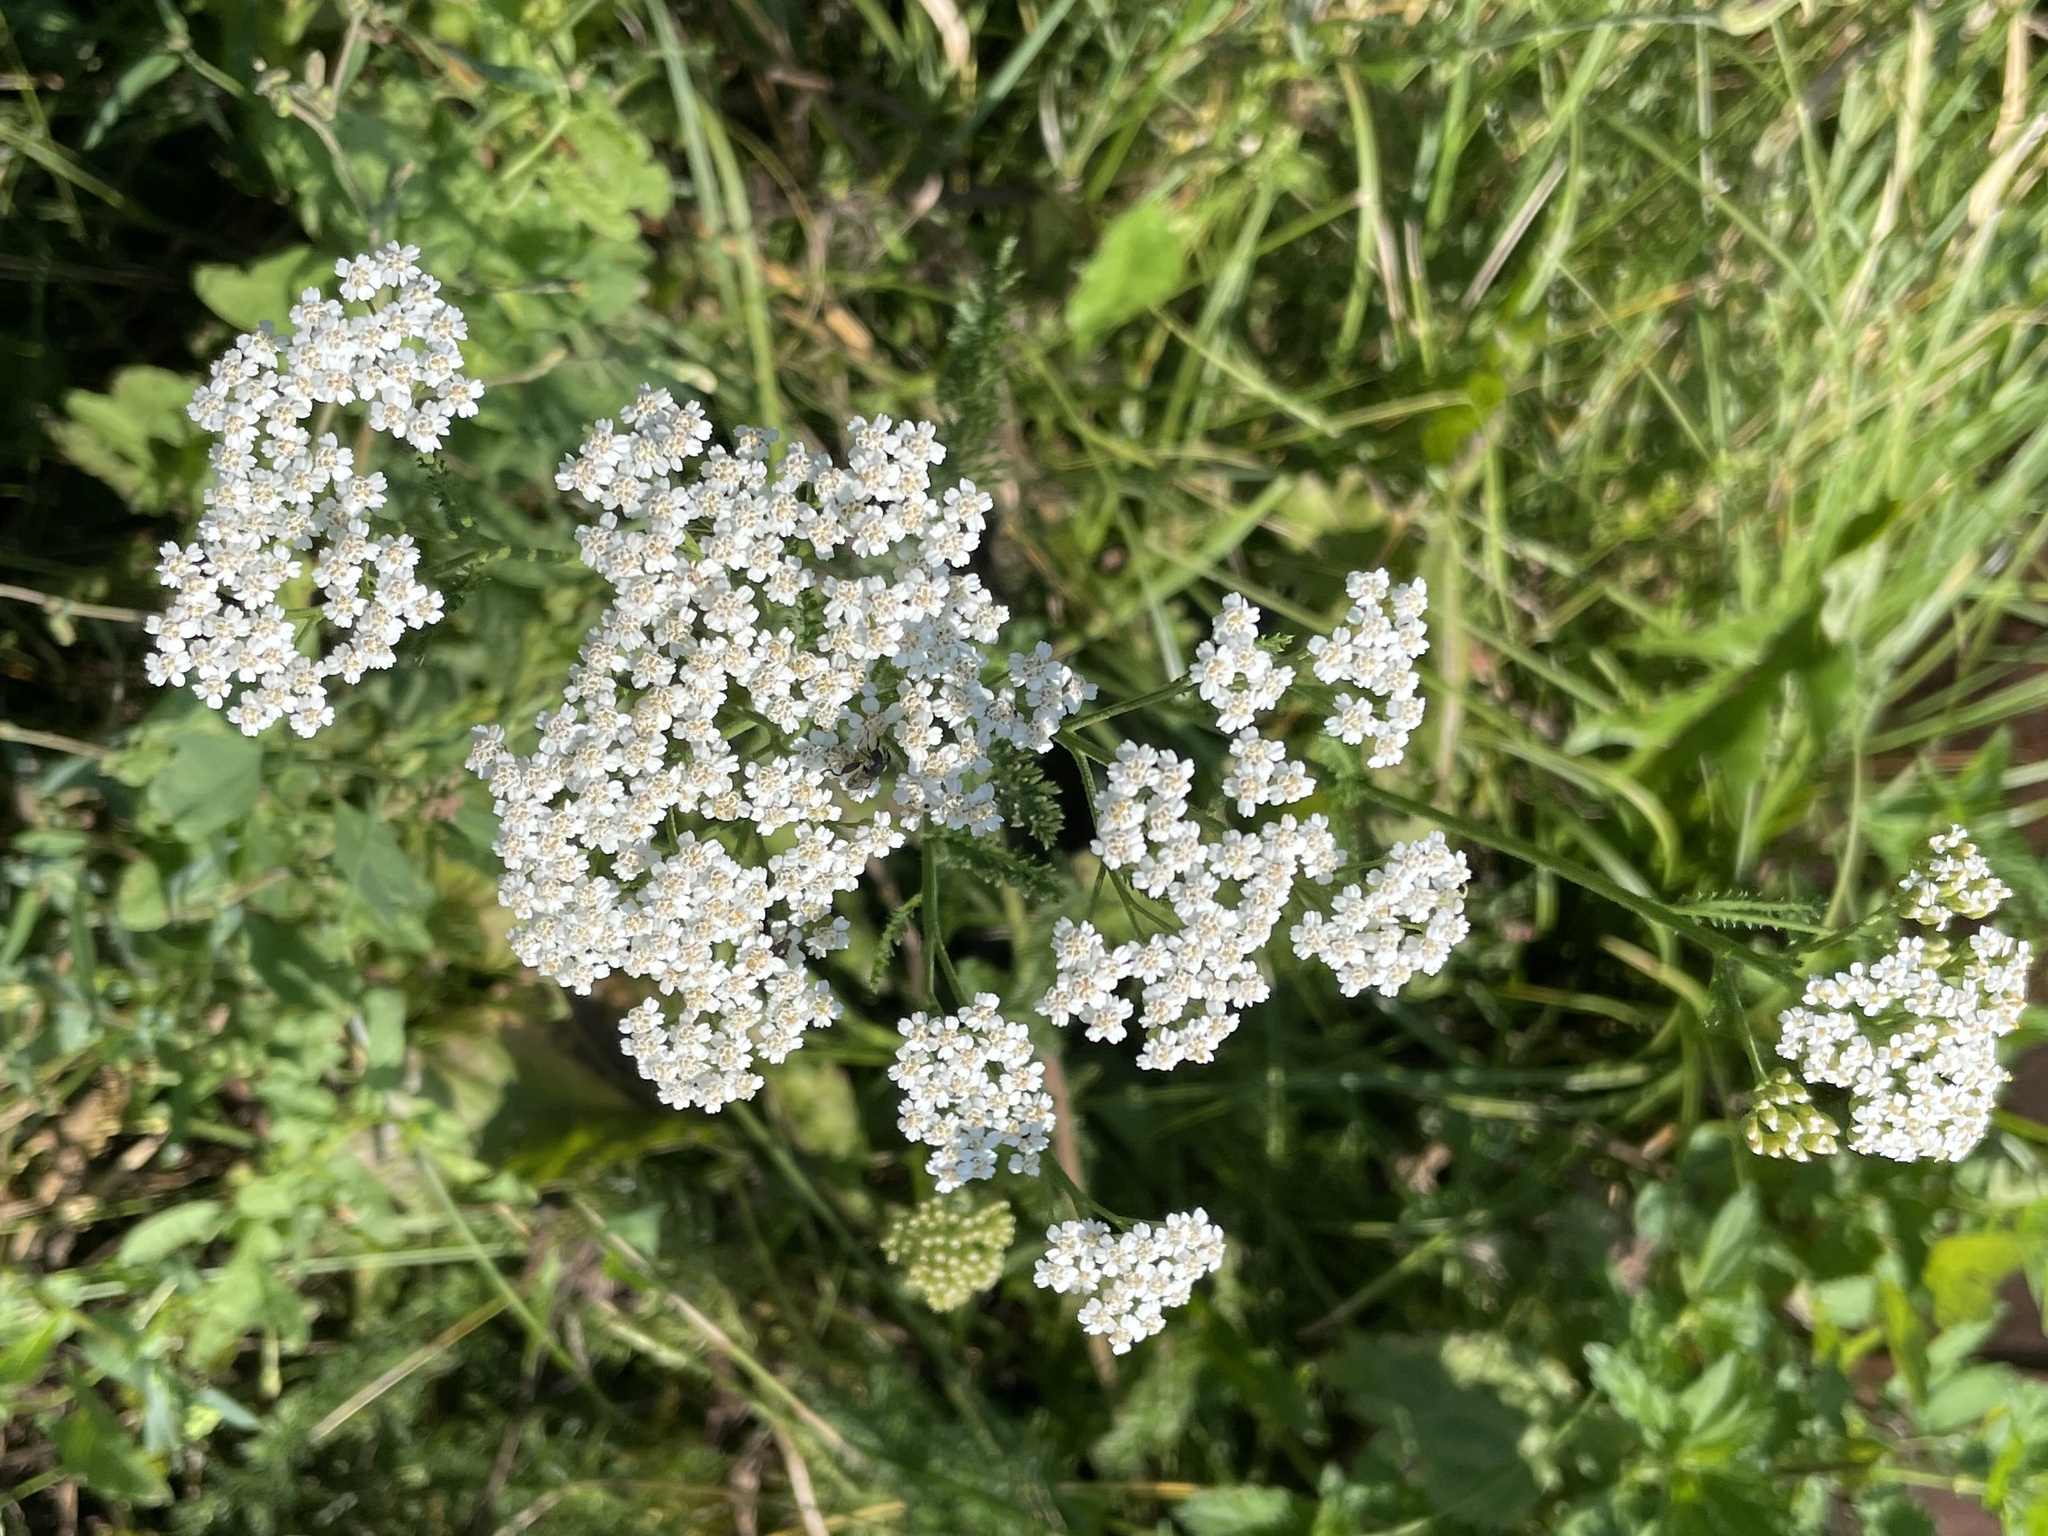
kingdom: Plantae
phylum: Tracheophyta
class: Magnoliopsida
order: Asterales
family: Asteraceae
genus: Achillea
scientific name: Achillea millefolium
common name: Yarrow
